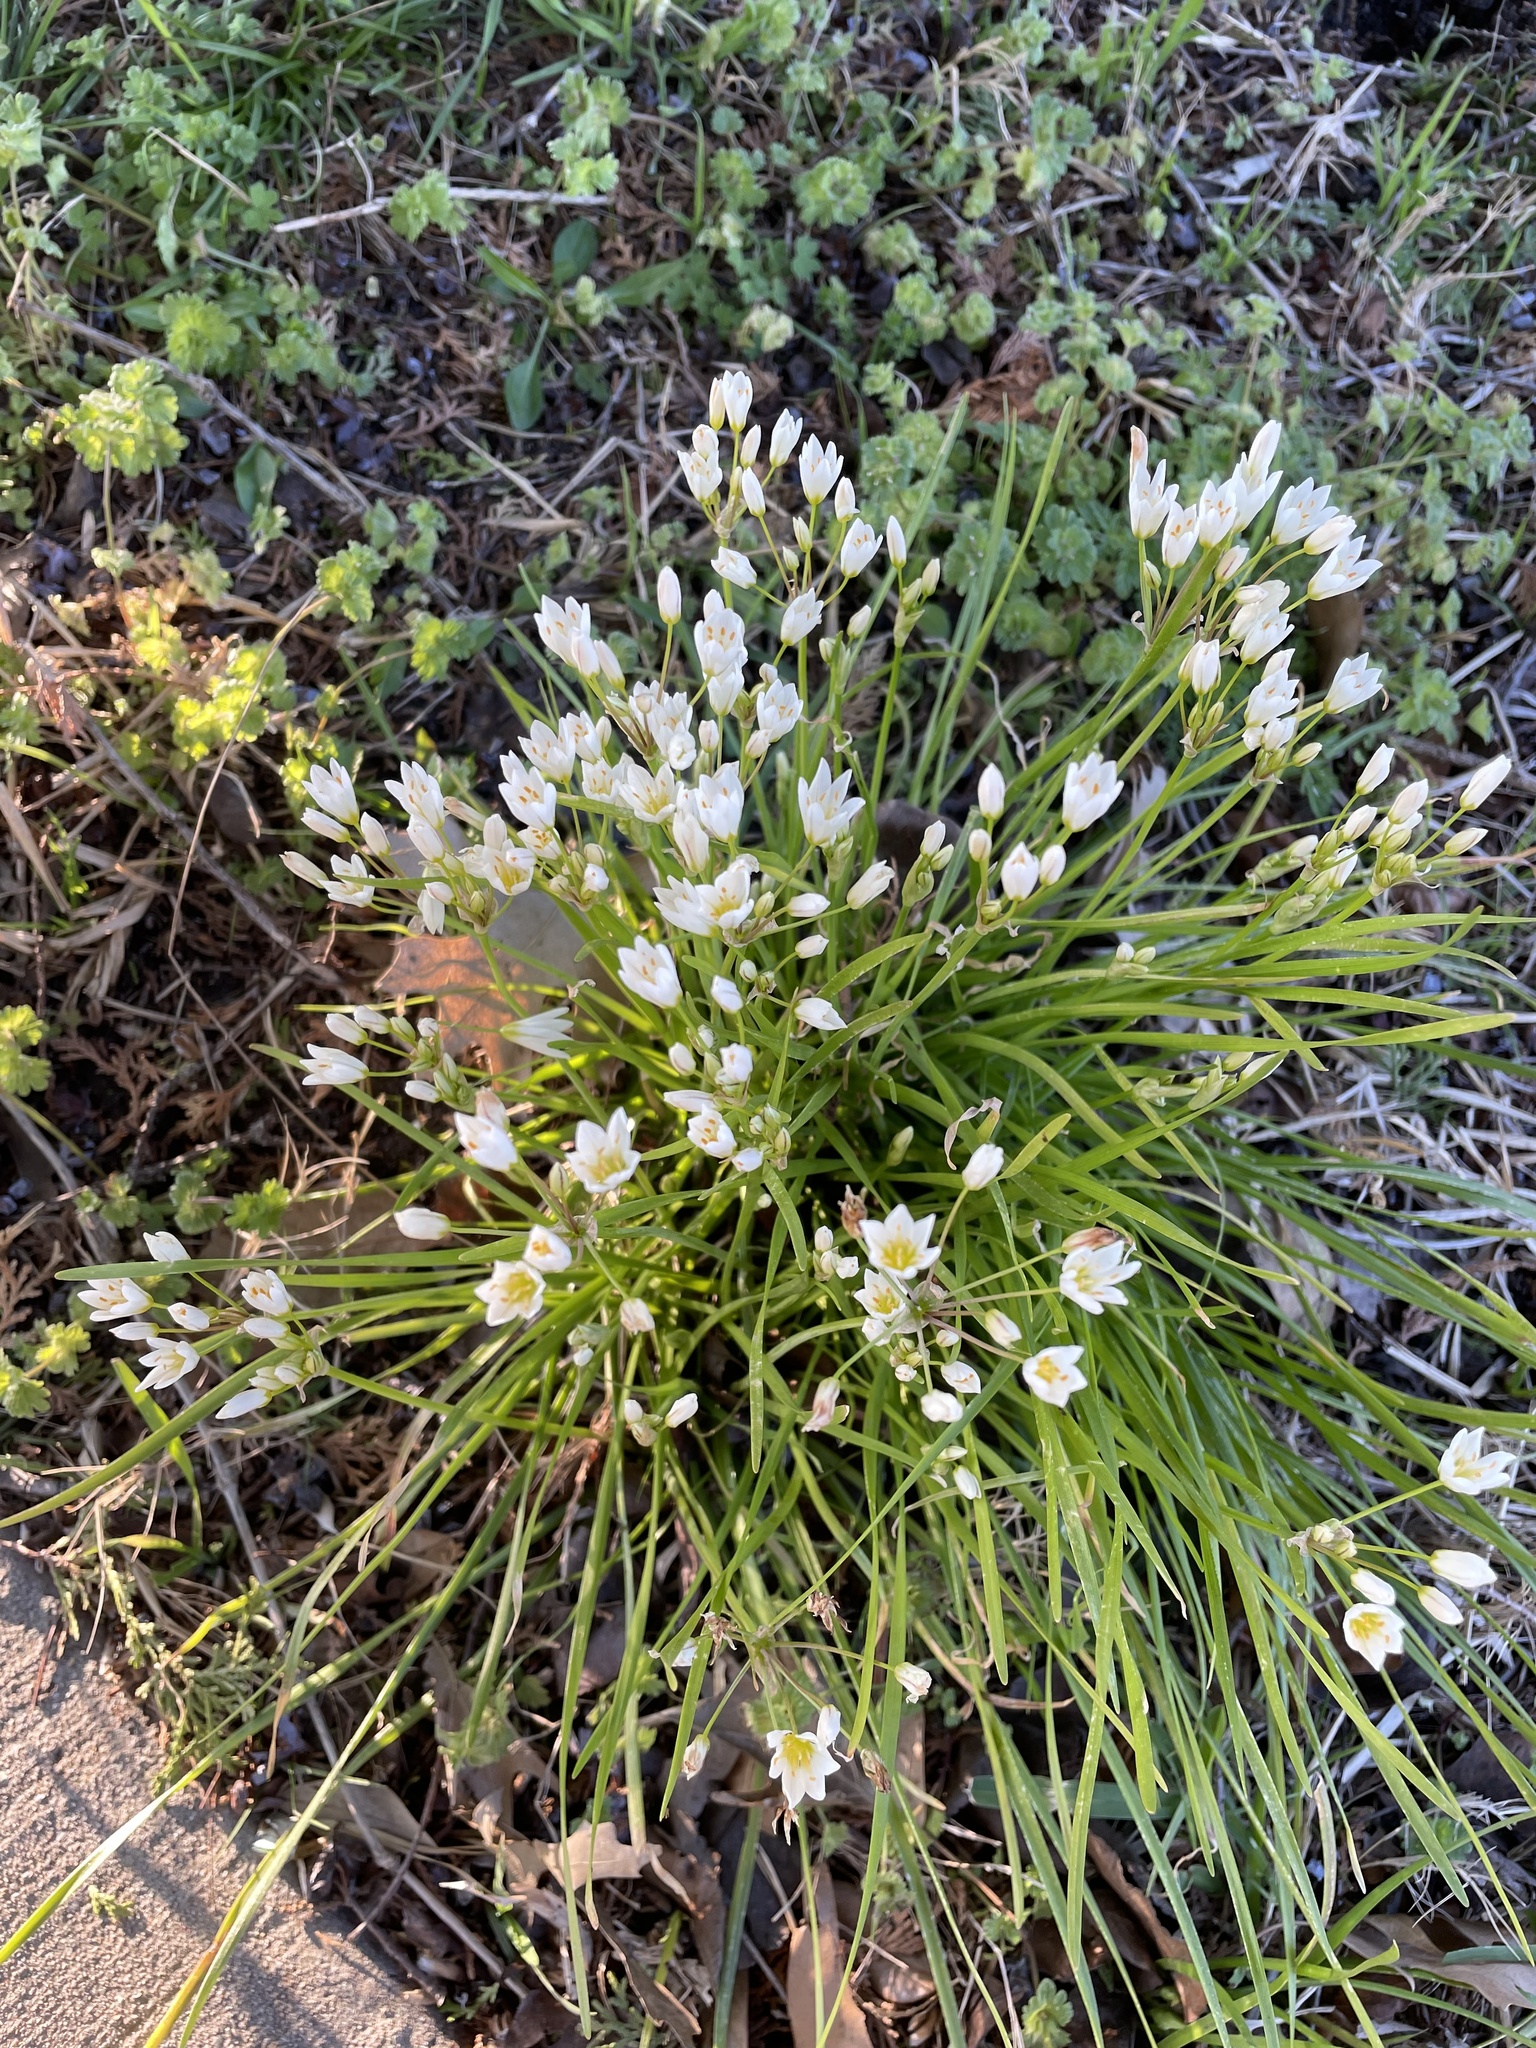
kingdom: Plantae
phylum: Tracheophyta
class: Liliopsida
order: Asparagales
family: Amaryllidaceae
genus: Nothoscordum
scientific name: Nothoscordum bivalve
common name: Crow-poison
